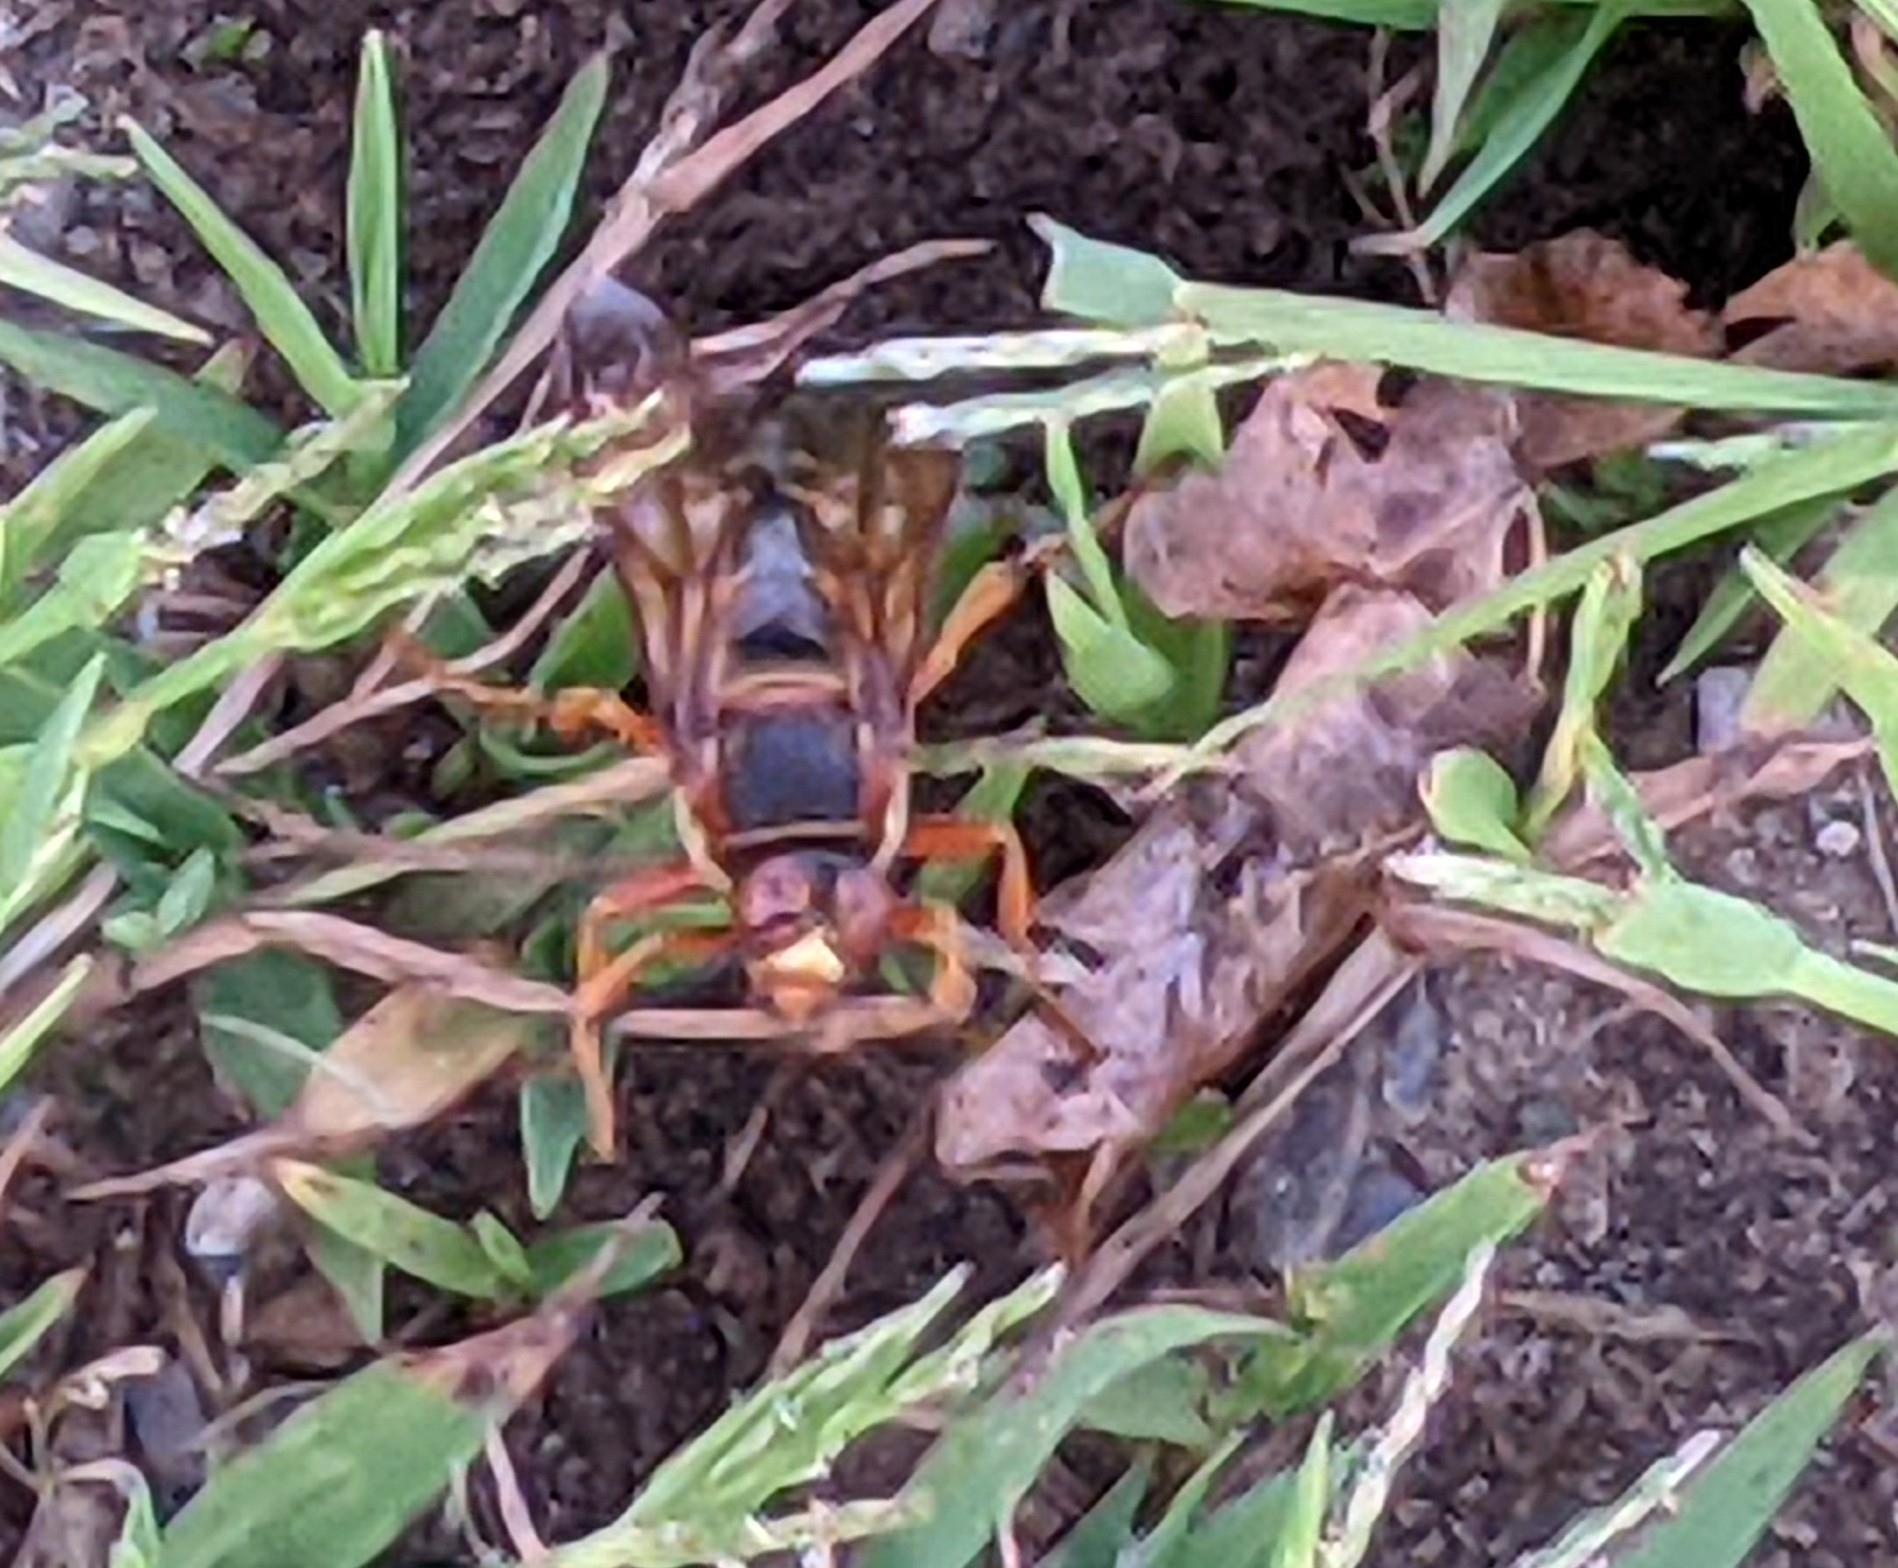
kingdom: Animalia
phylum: Arthropoda
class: Insecta
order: Hymenoptera
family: Crabronidae
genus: Sphecius
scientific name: Sphecius speciosus
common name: Cicada killer
